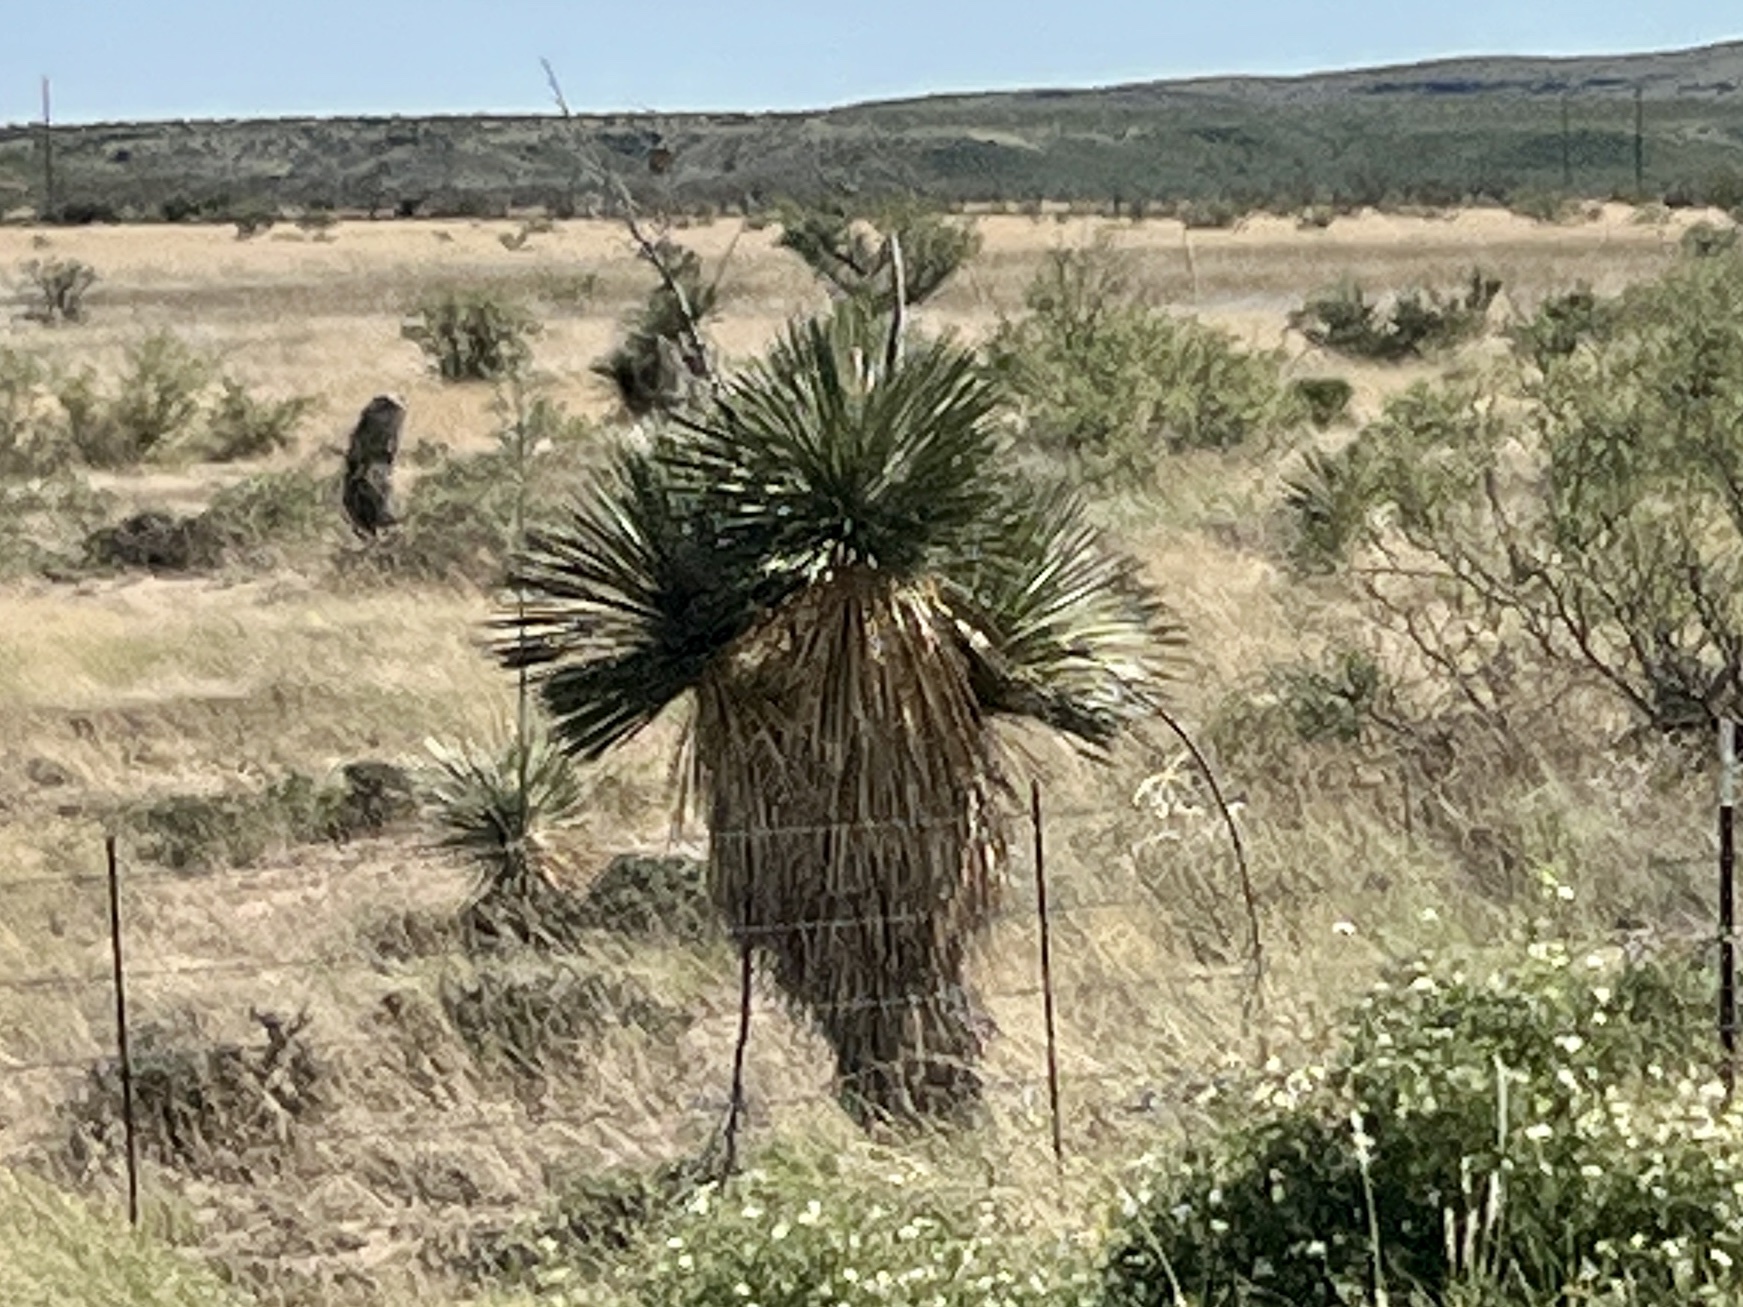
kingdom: Plantae
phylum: Tracheophyta
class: Liliopsida
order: Asparagales
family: Asparagaceae
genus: Yucca
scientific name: Yucca elata
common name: Palmella
